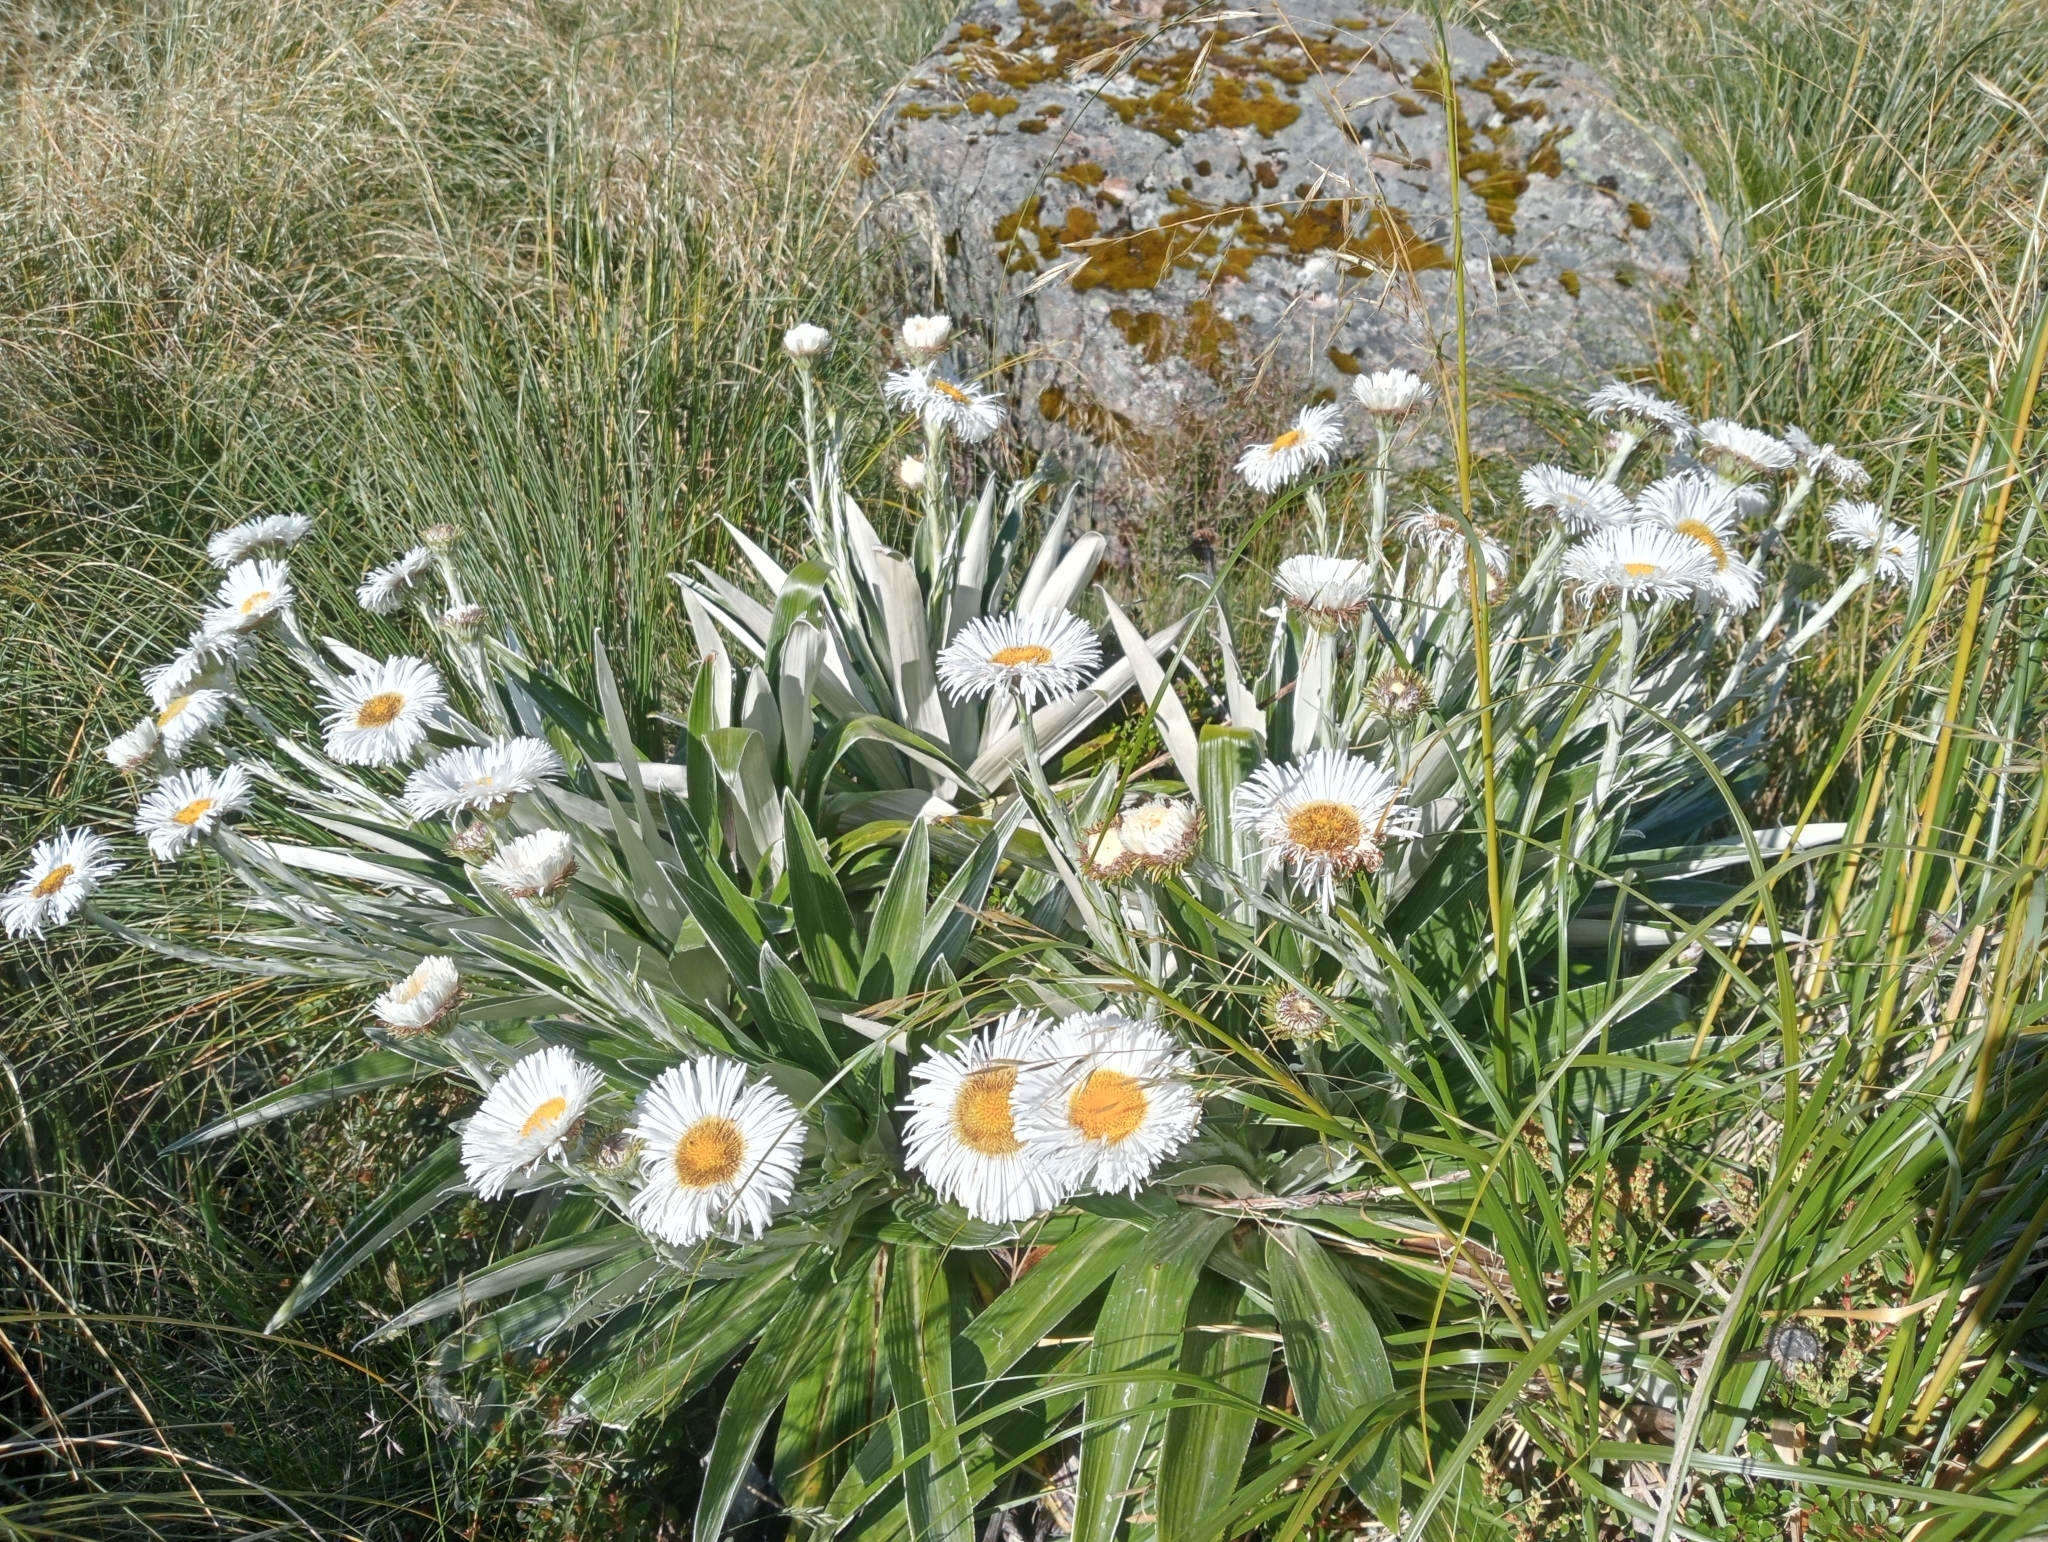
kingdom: Plantae
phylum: Tracheophyta
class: Magnoliopsida
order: Asterales
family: Asteraceae
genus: Celmisia
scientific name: Celmisia semicordata
